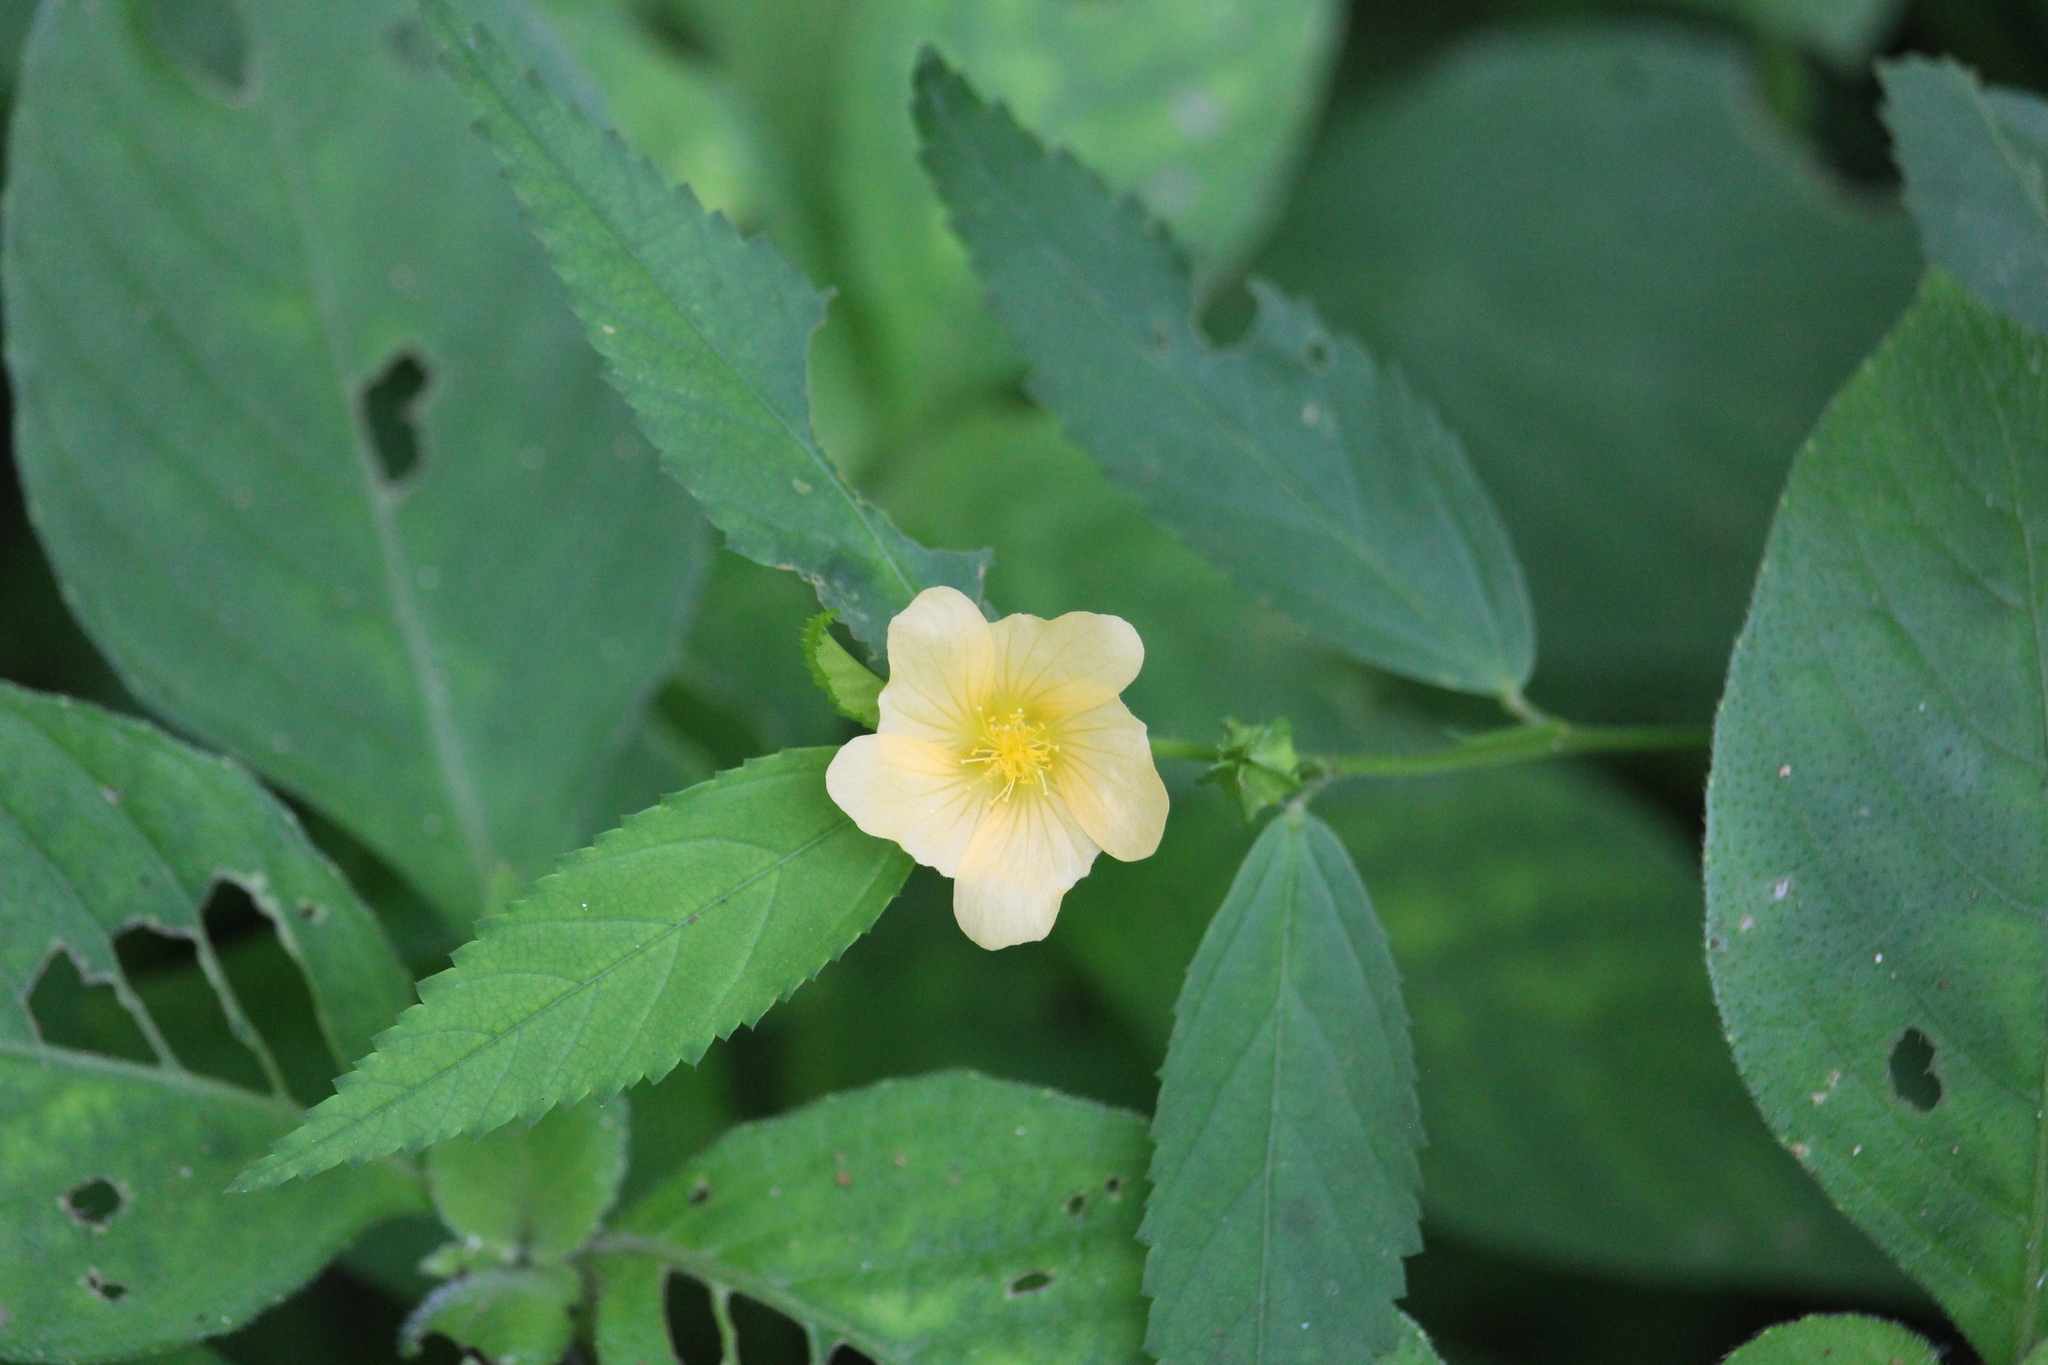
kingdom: Plantae
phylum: Tracheophyta
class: Magnoliopsida
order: Malvales
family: Malvaceae
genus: Sida
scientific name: Sida rhombifolia
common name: Queensland-hemp
